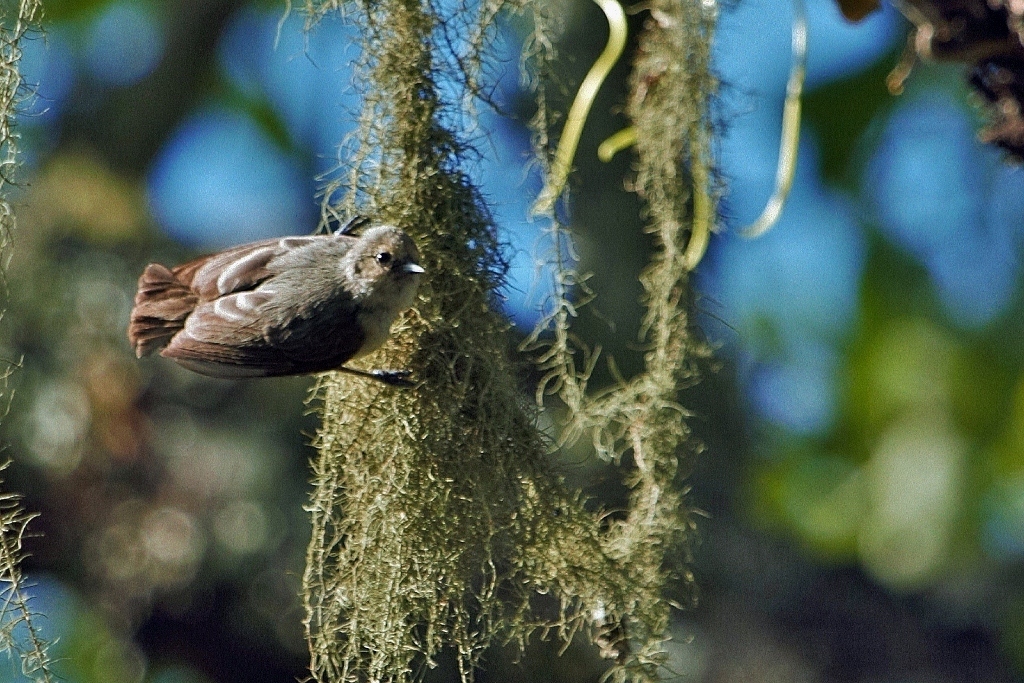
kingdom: Animalia
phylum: Chordata
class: Aves
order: Passeriformes
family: Remizidae
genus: Anthoscopus
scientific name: Anthoscopus caroli
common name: Grey penduline tit
